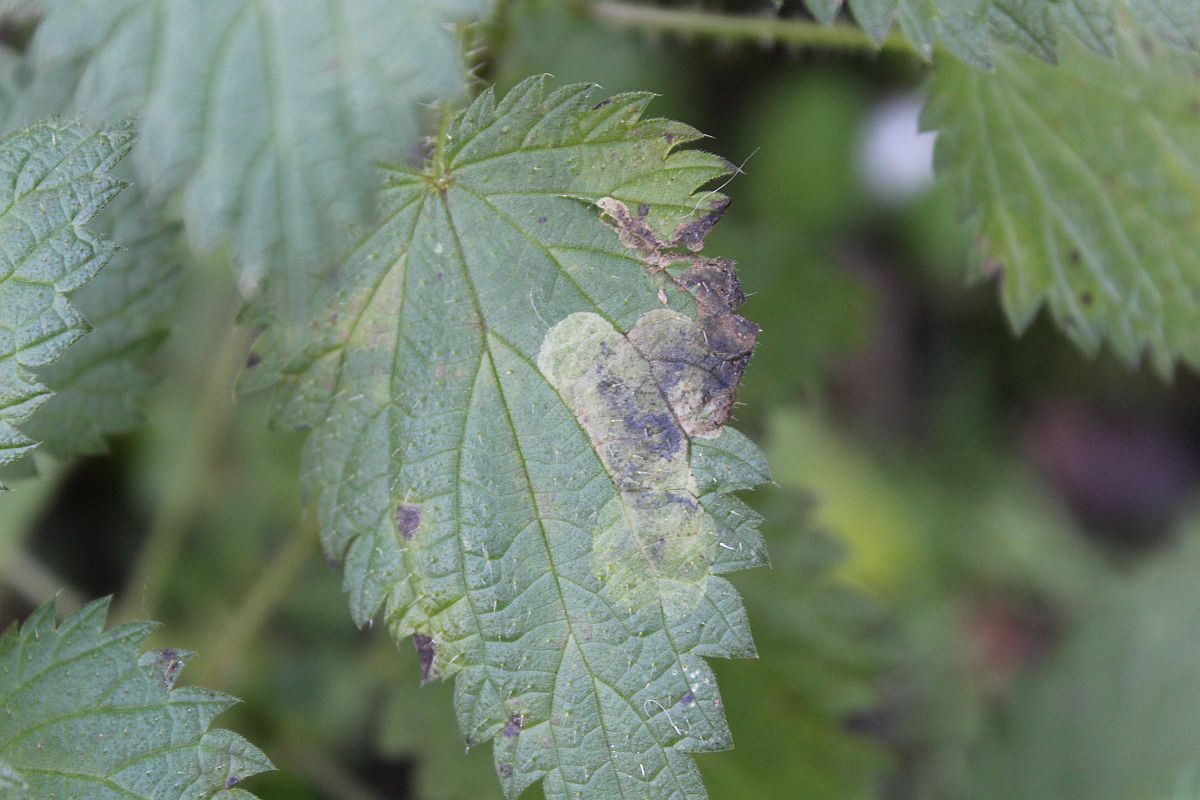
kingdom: Animalia
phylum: Arthropoda
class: Insecta
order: Diptera
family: Agromyzidae
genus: Agromyza
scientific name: Agromyza anthracina
